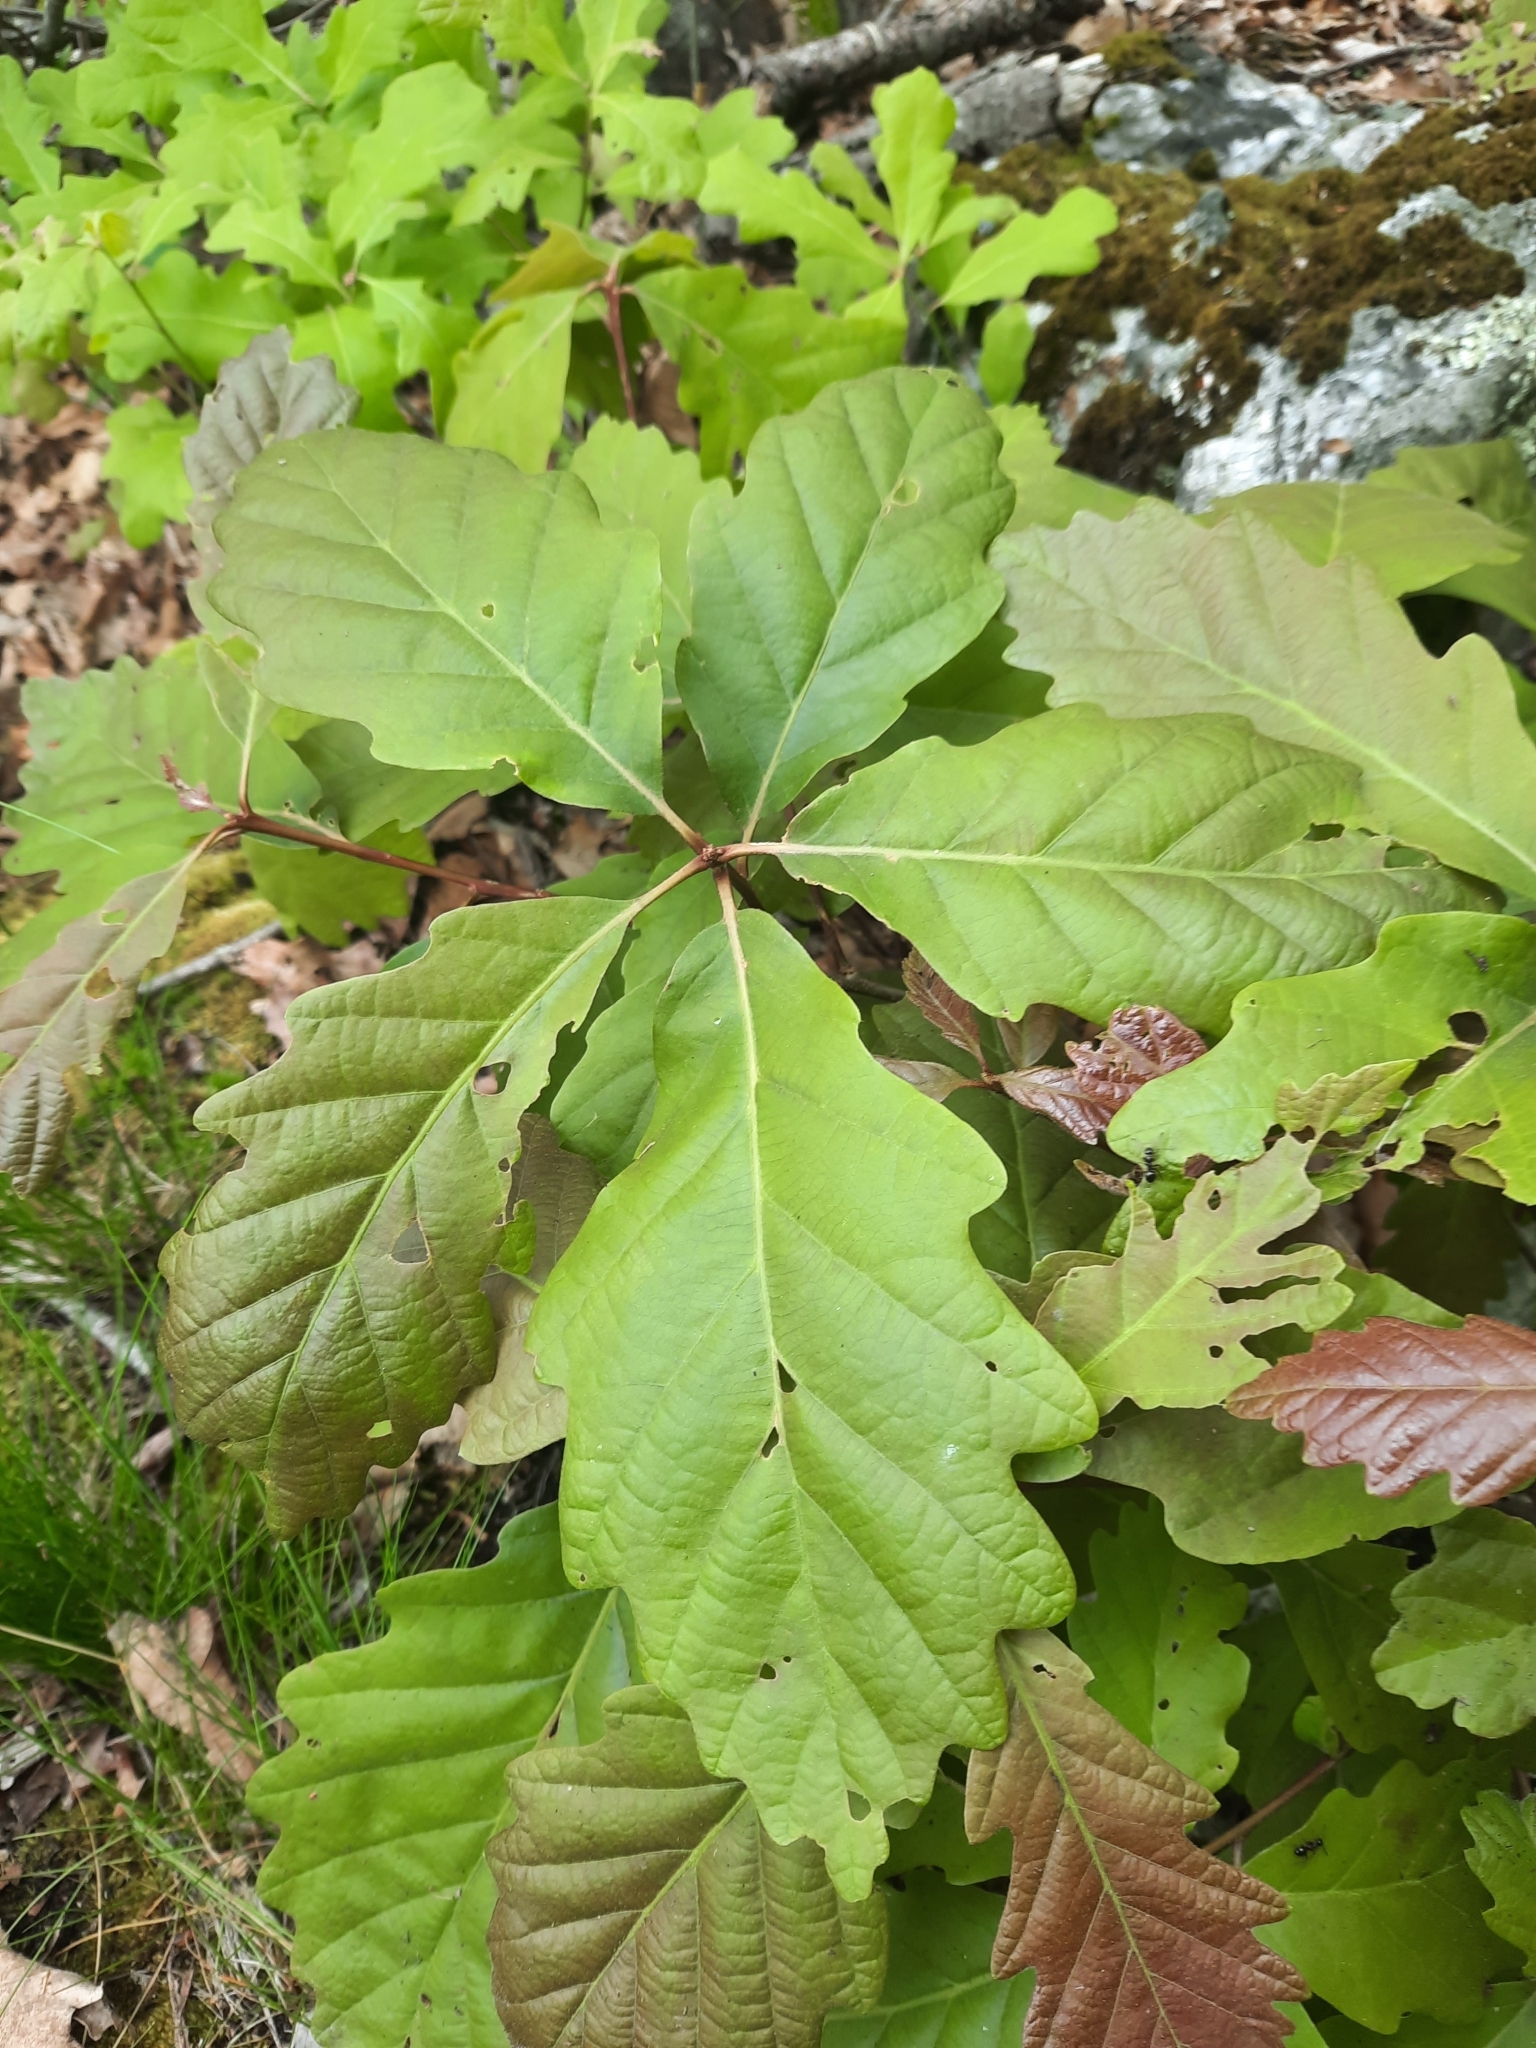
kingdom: Plantae
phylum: Tracheophyta
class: Magnoliopsida
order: Fagales
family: Fagaceae
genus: Quercus
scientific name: Quercus montana
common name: Chestnut oak
